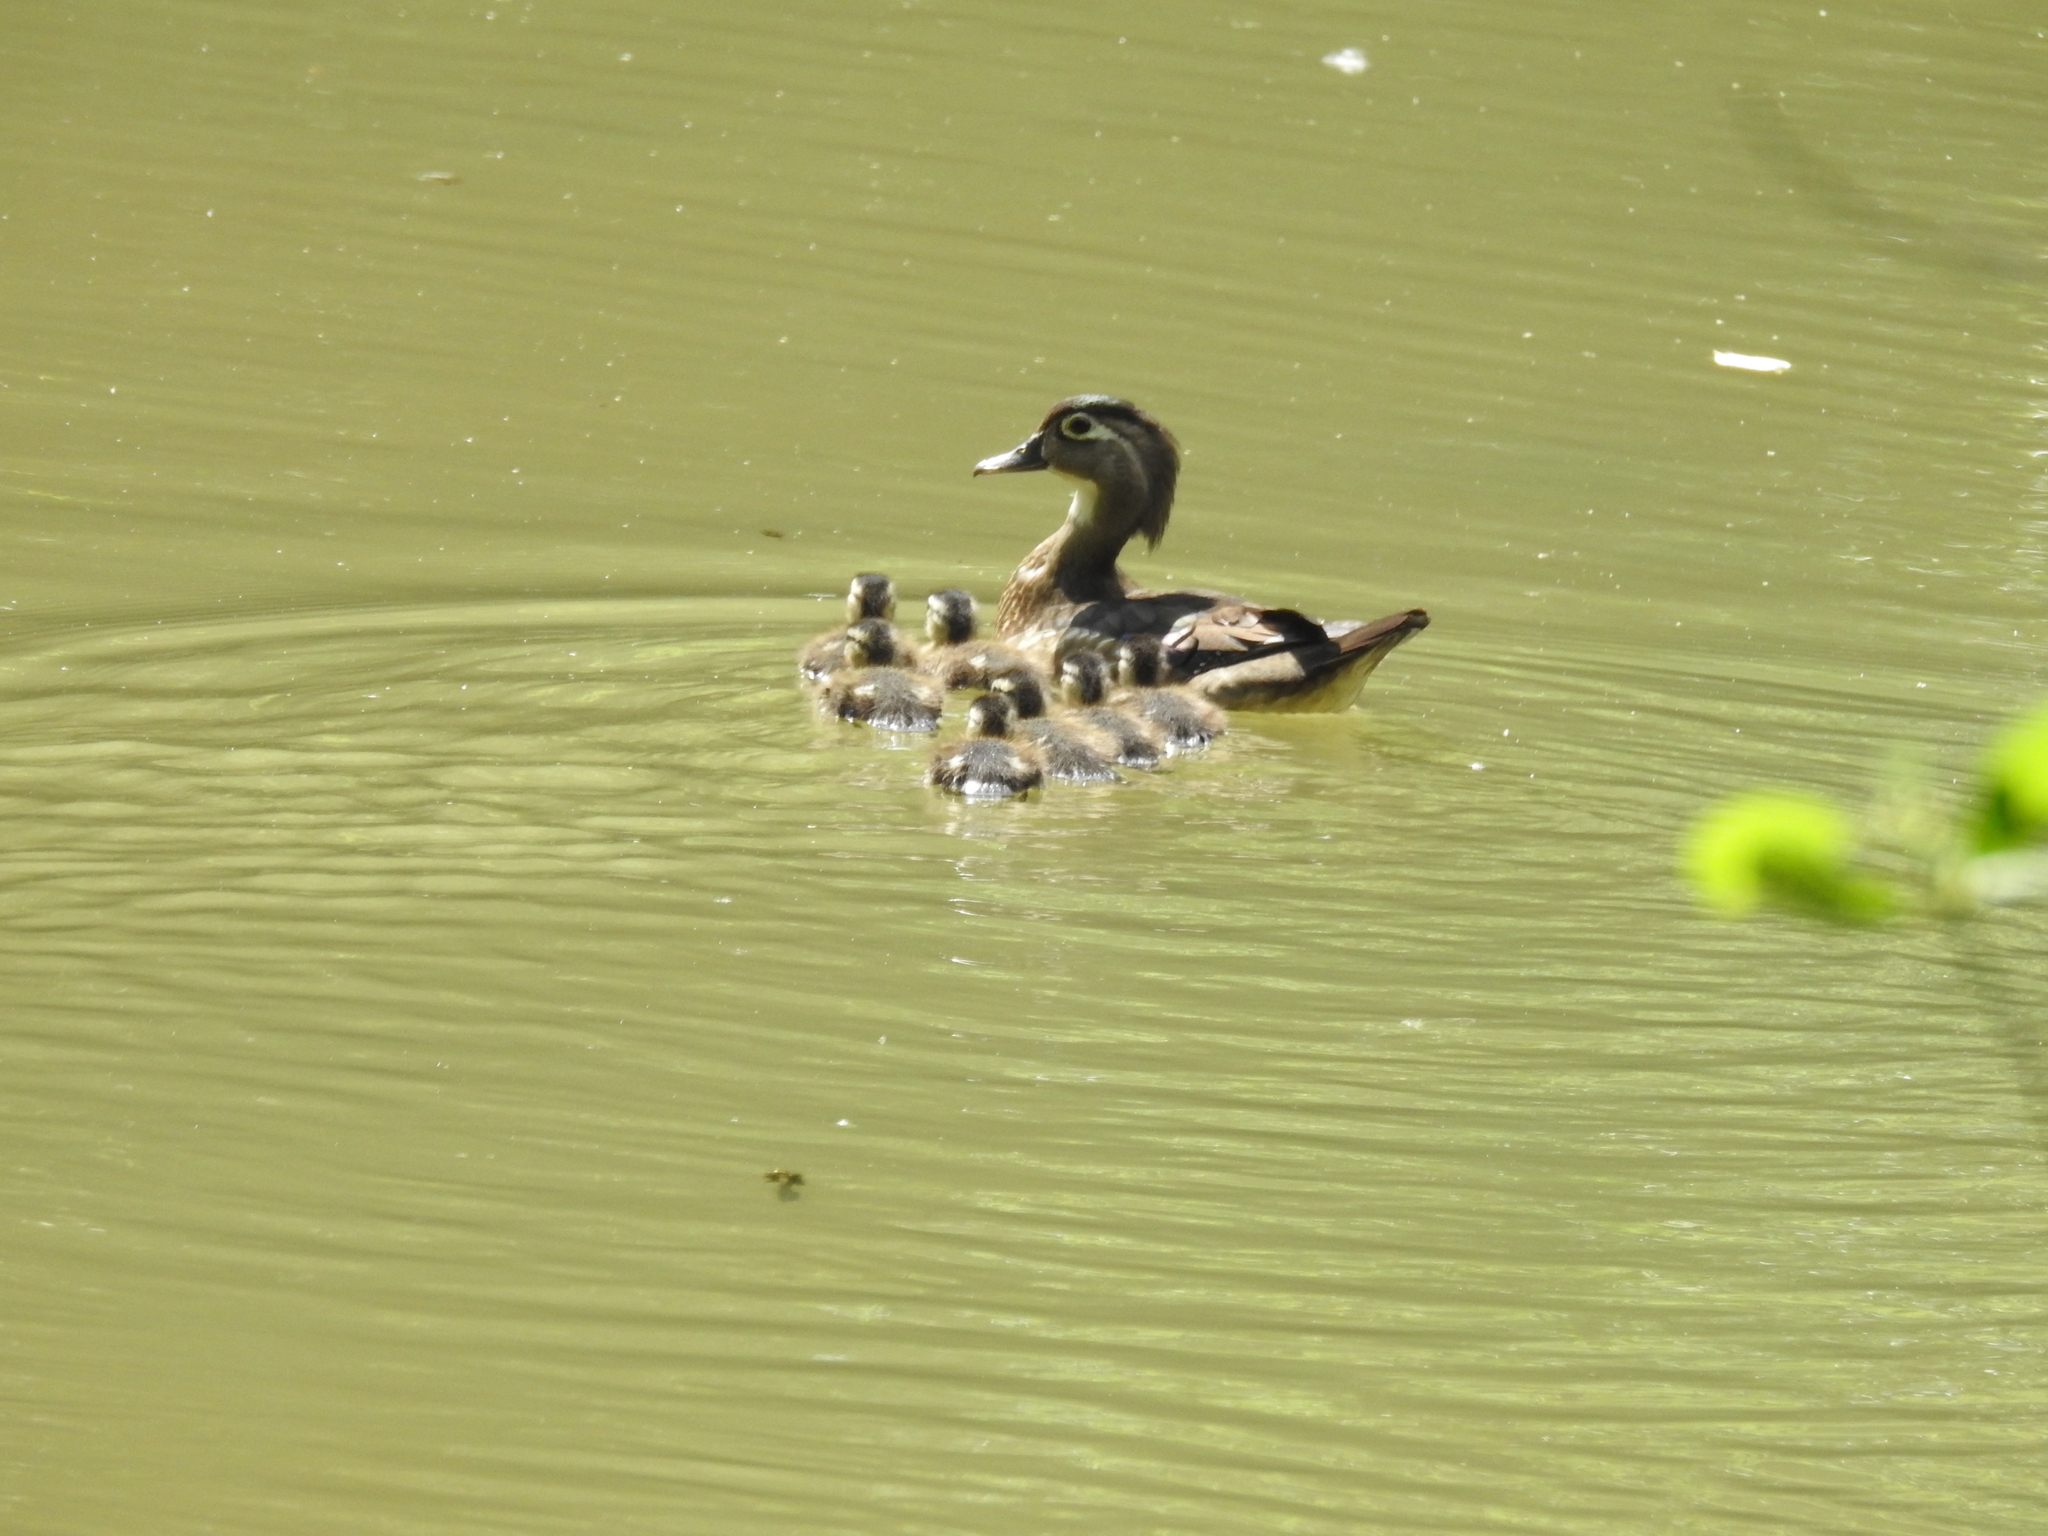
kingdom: Animalia
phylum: Chordata
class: Aves
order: Anseriformes
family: Anatidae
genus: Aix
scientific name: Aix sponsa
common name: Wood duck
